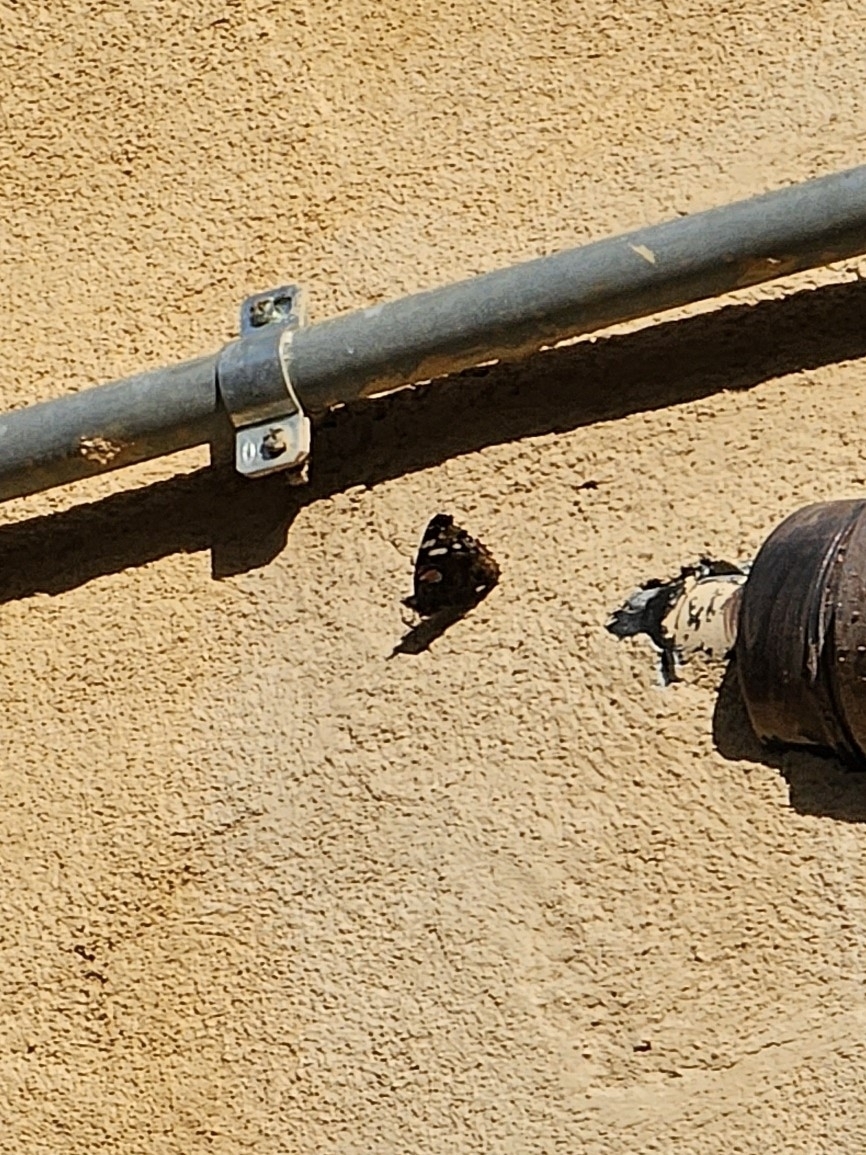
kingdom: Animalia
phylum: Arthropoda
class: Insecta
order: Lepidoptera
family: Nymphalidae
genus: Vanessa
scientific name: Vanessa atalanta
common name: Red admiral
